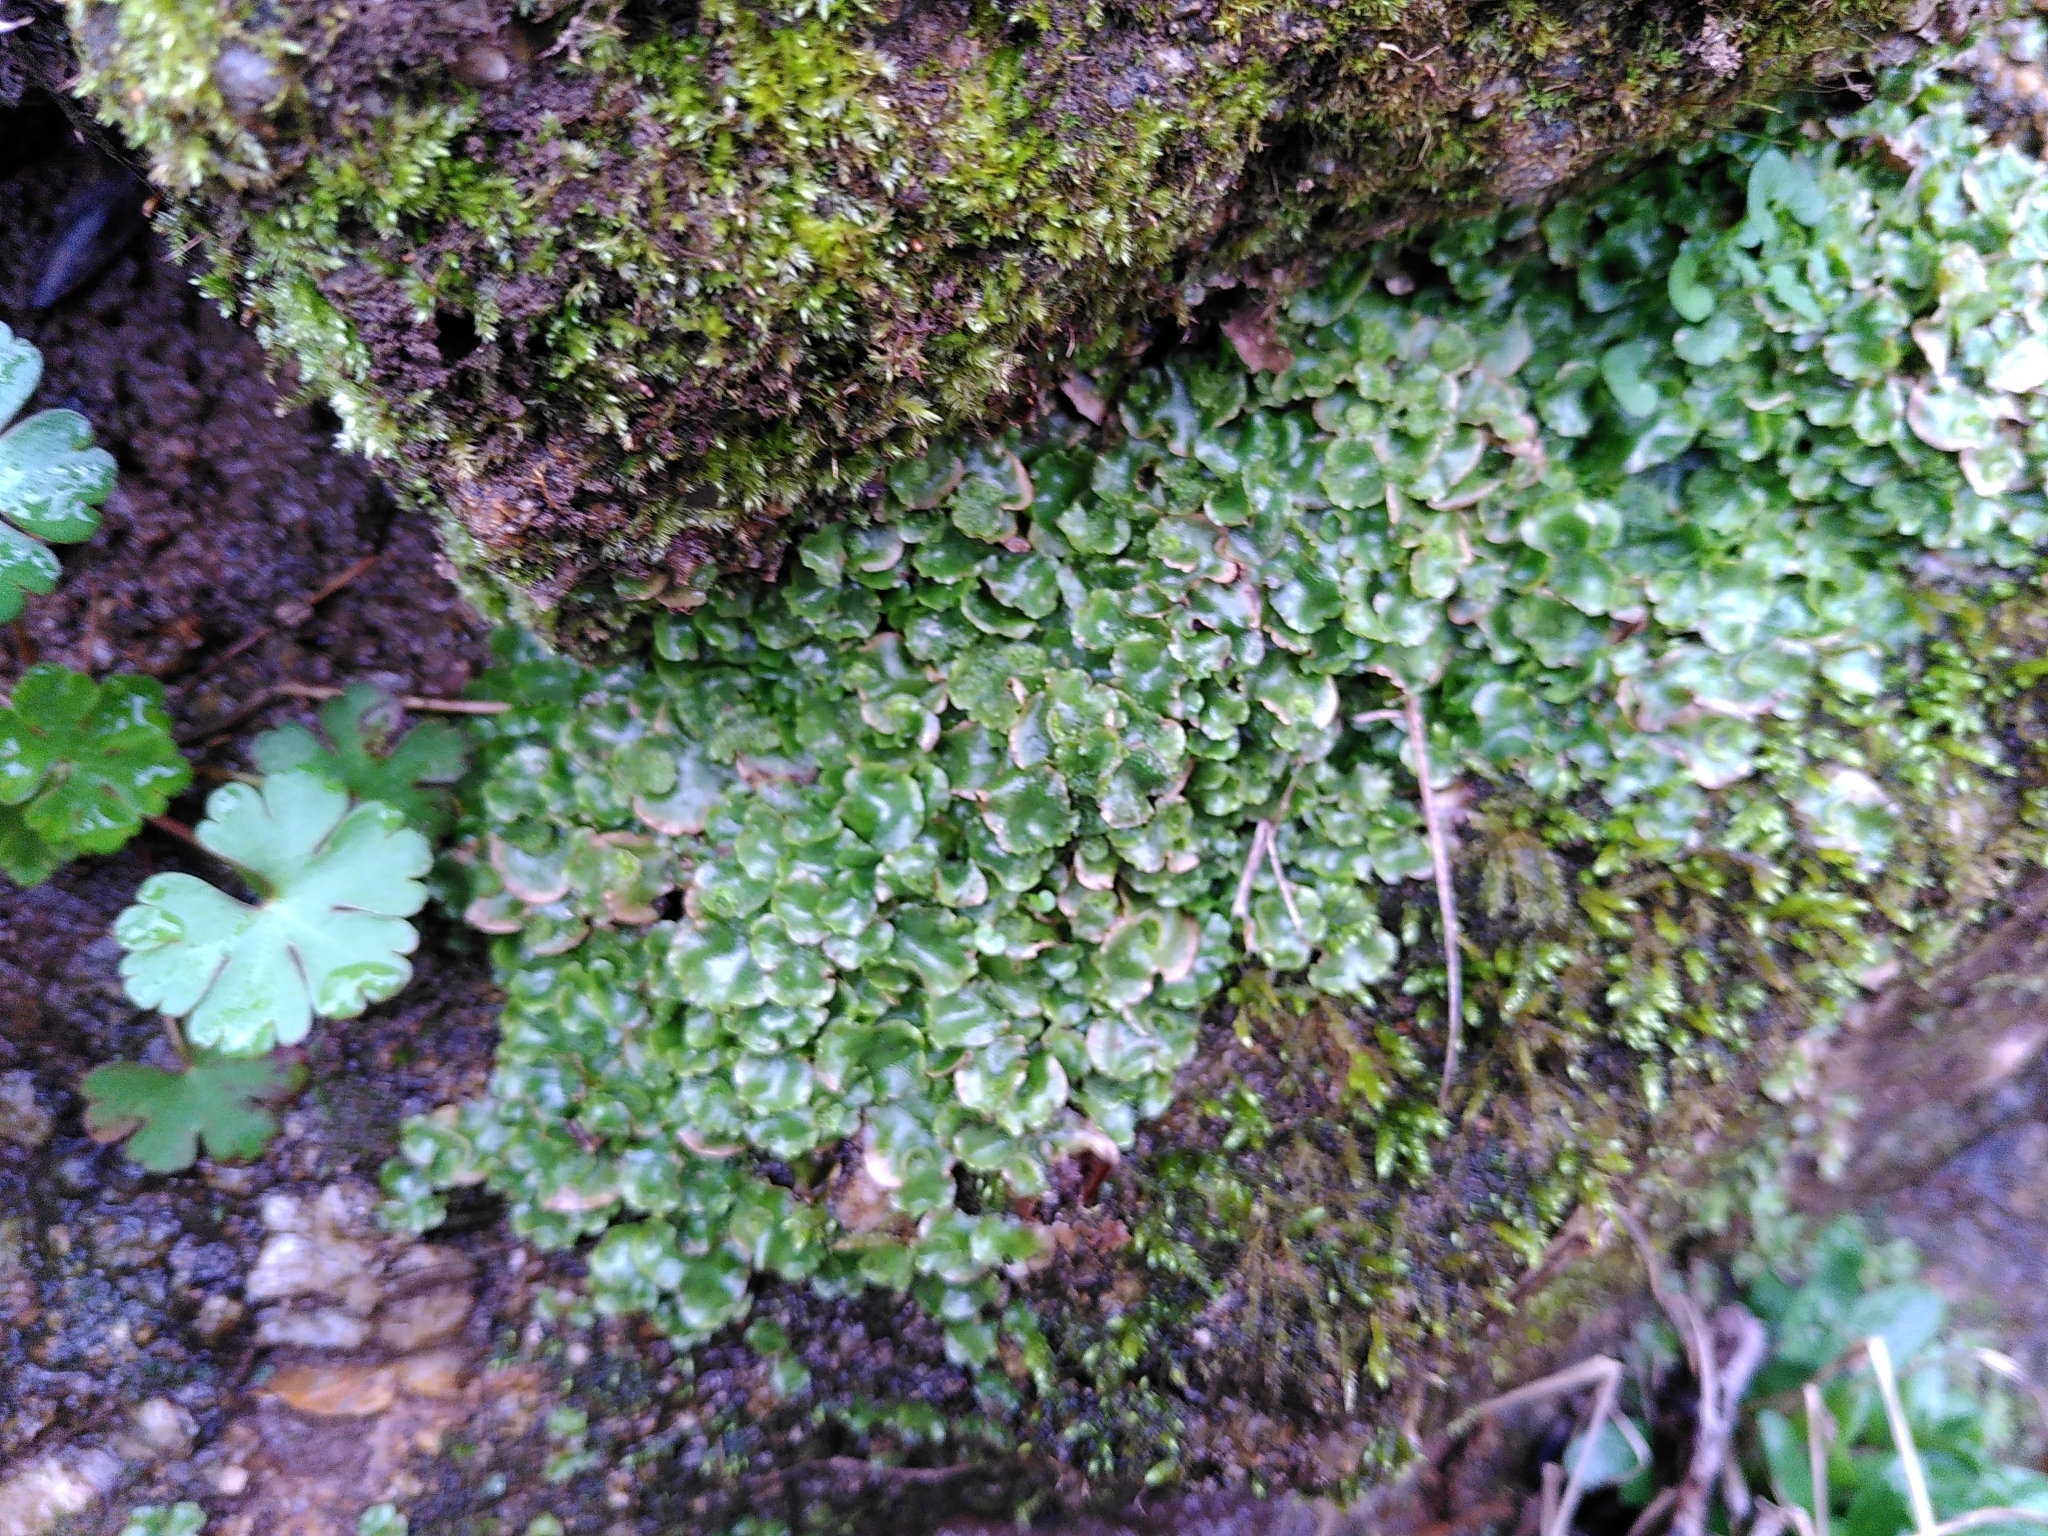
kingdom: Plantae
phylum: Marchantiophyta
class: Marchantiopsida
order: Lunulariales
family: Lunulariaceae
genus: Lunularia
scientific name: Lunularia cruciata
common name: Crescent-cup liverwort
